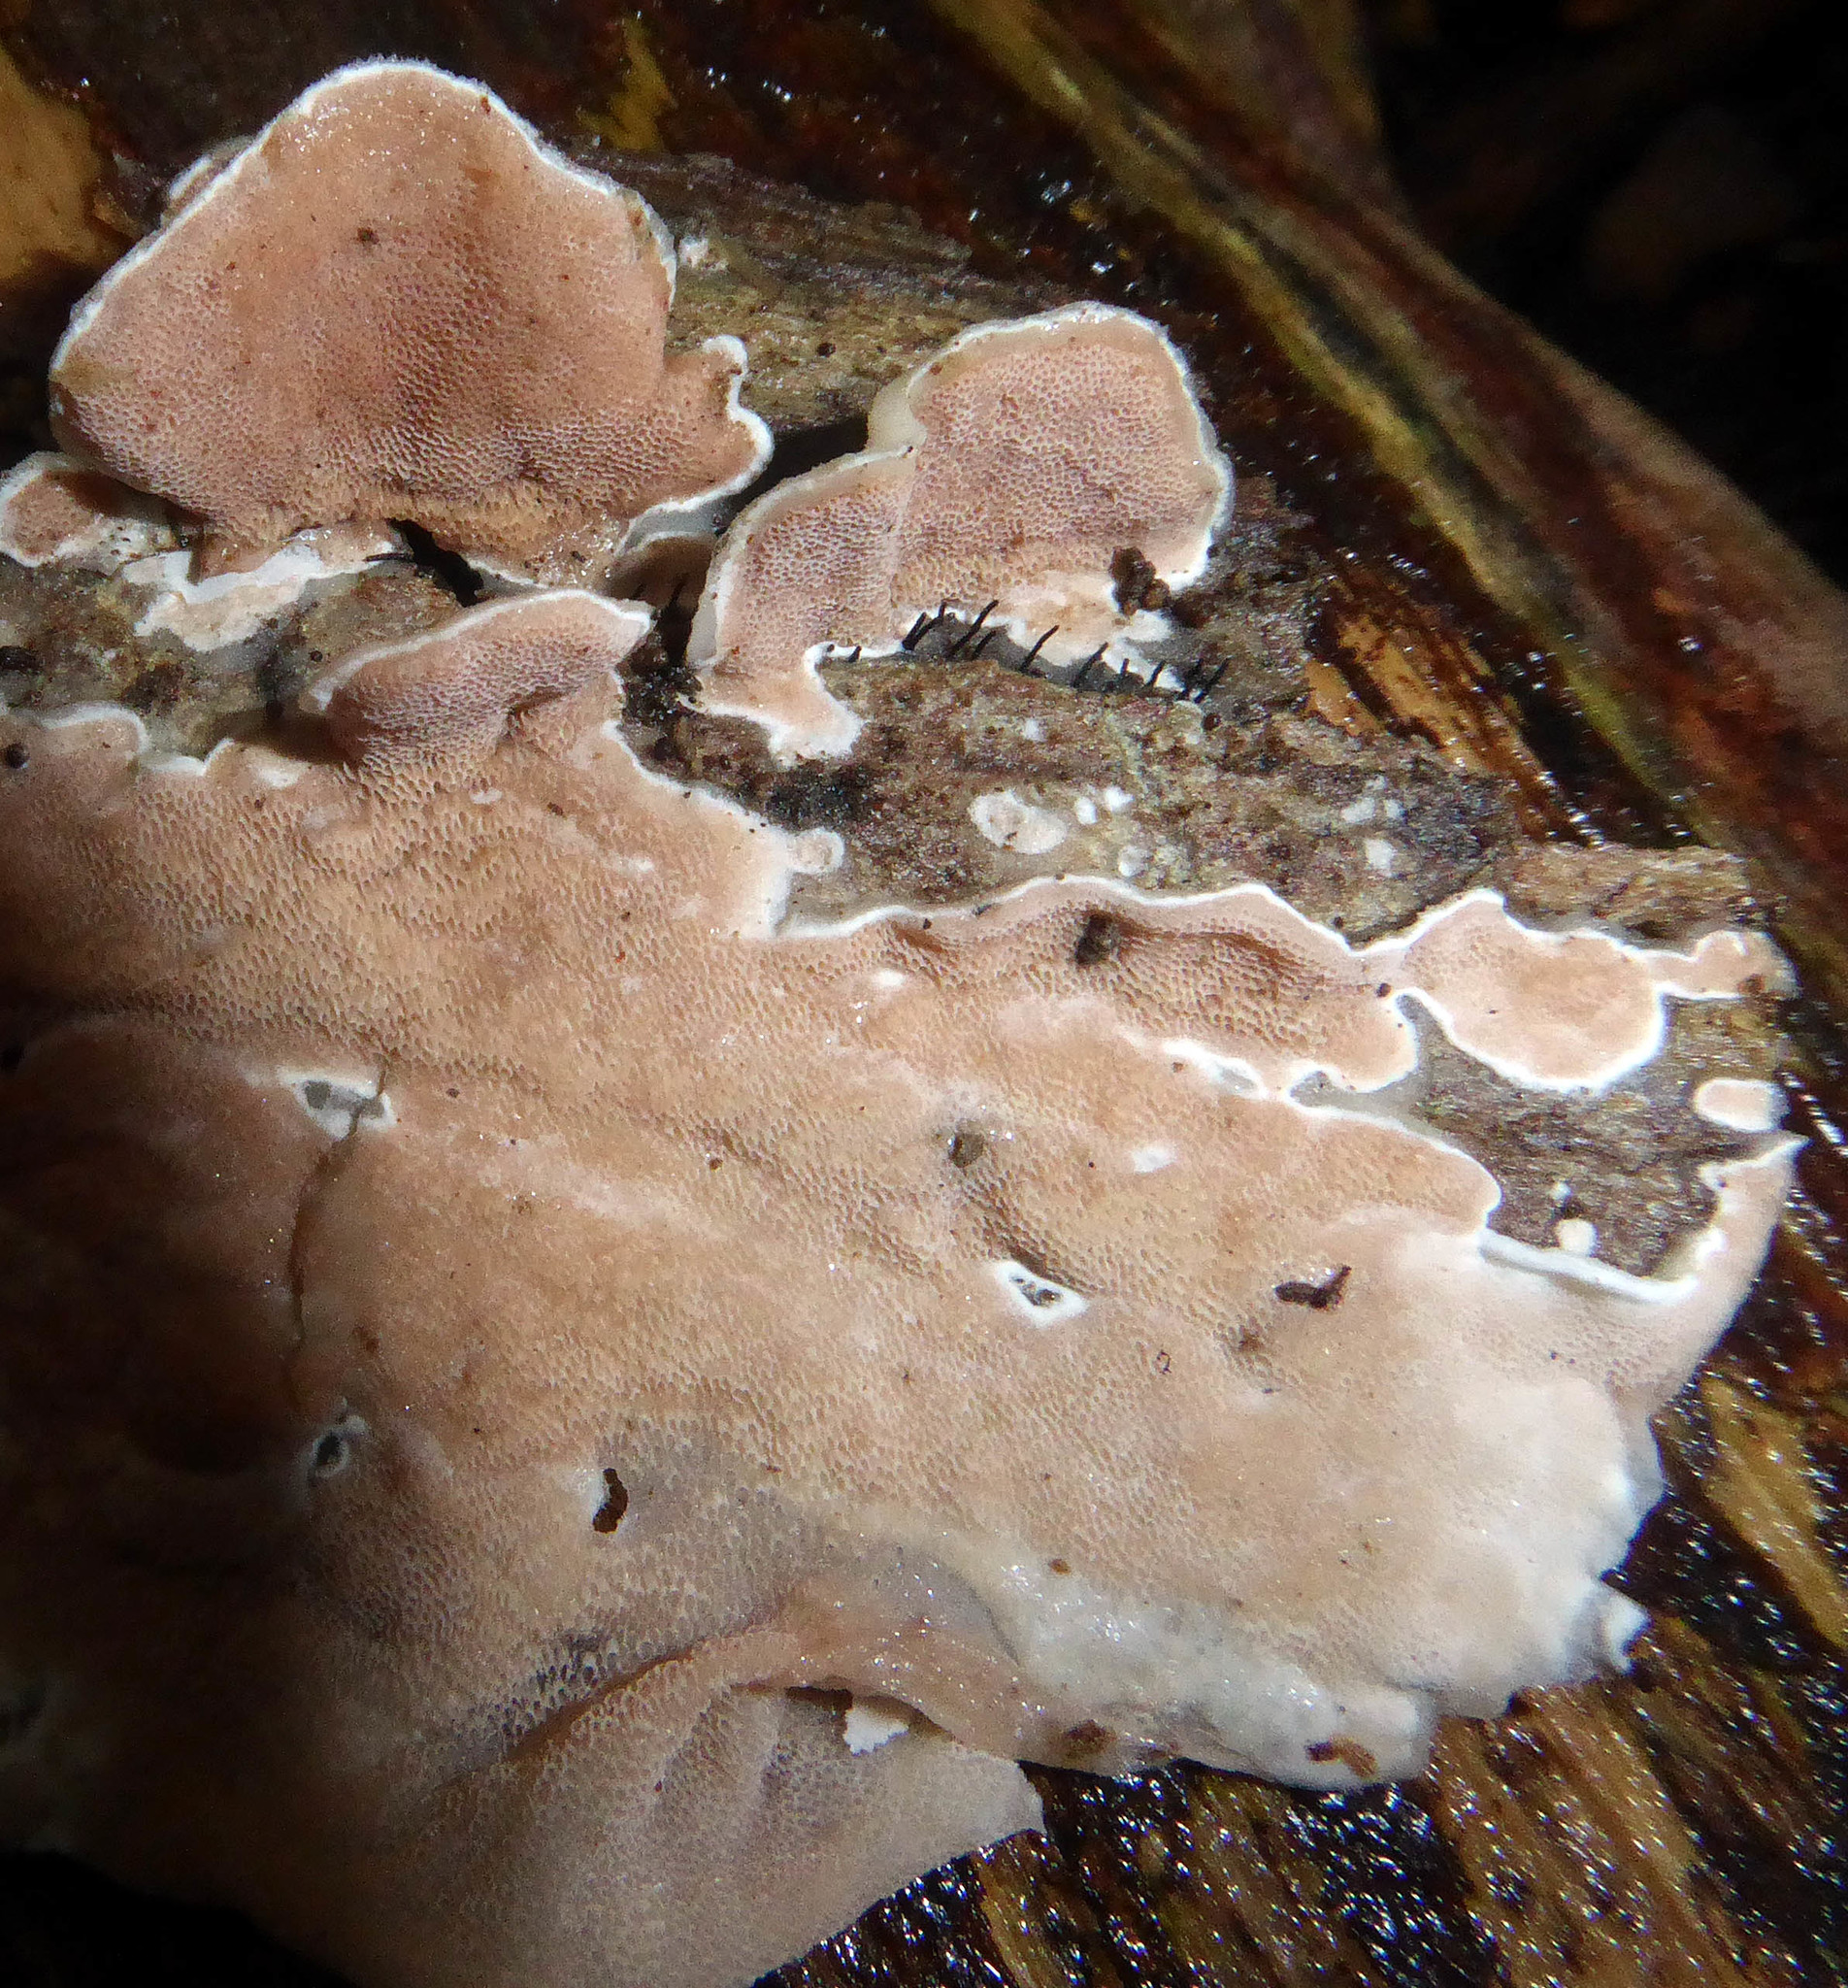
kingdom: Fungi
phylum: Basidiomycota
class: Agaricomycetes
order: Polyporales
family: Irpicaceae
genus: Vitreoporus
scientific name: Vitreoporus dichrous
